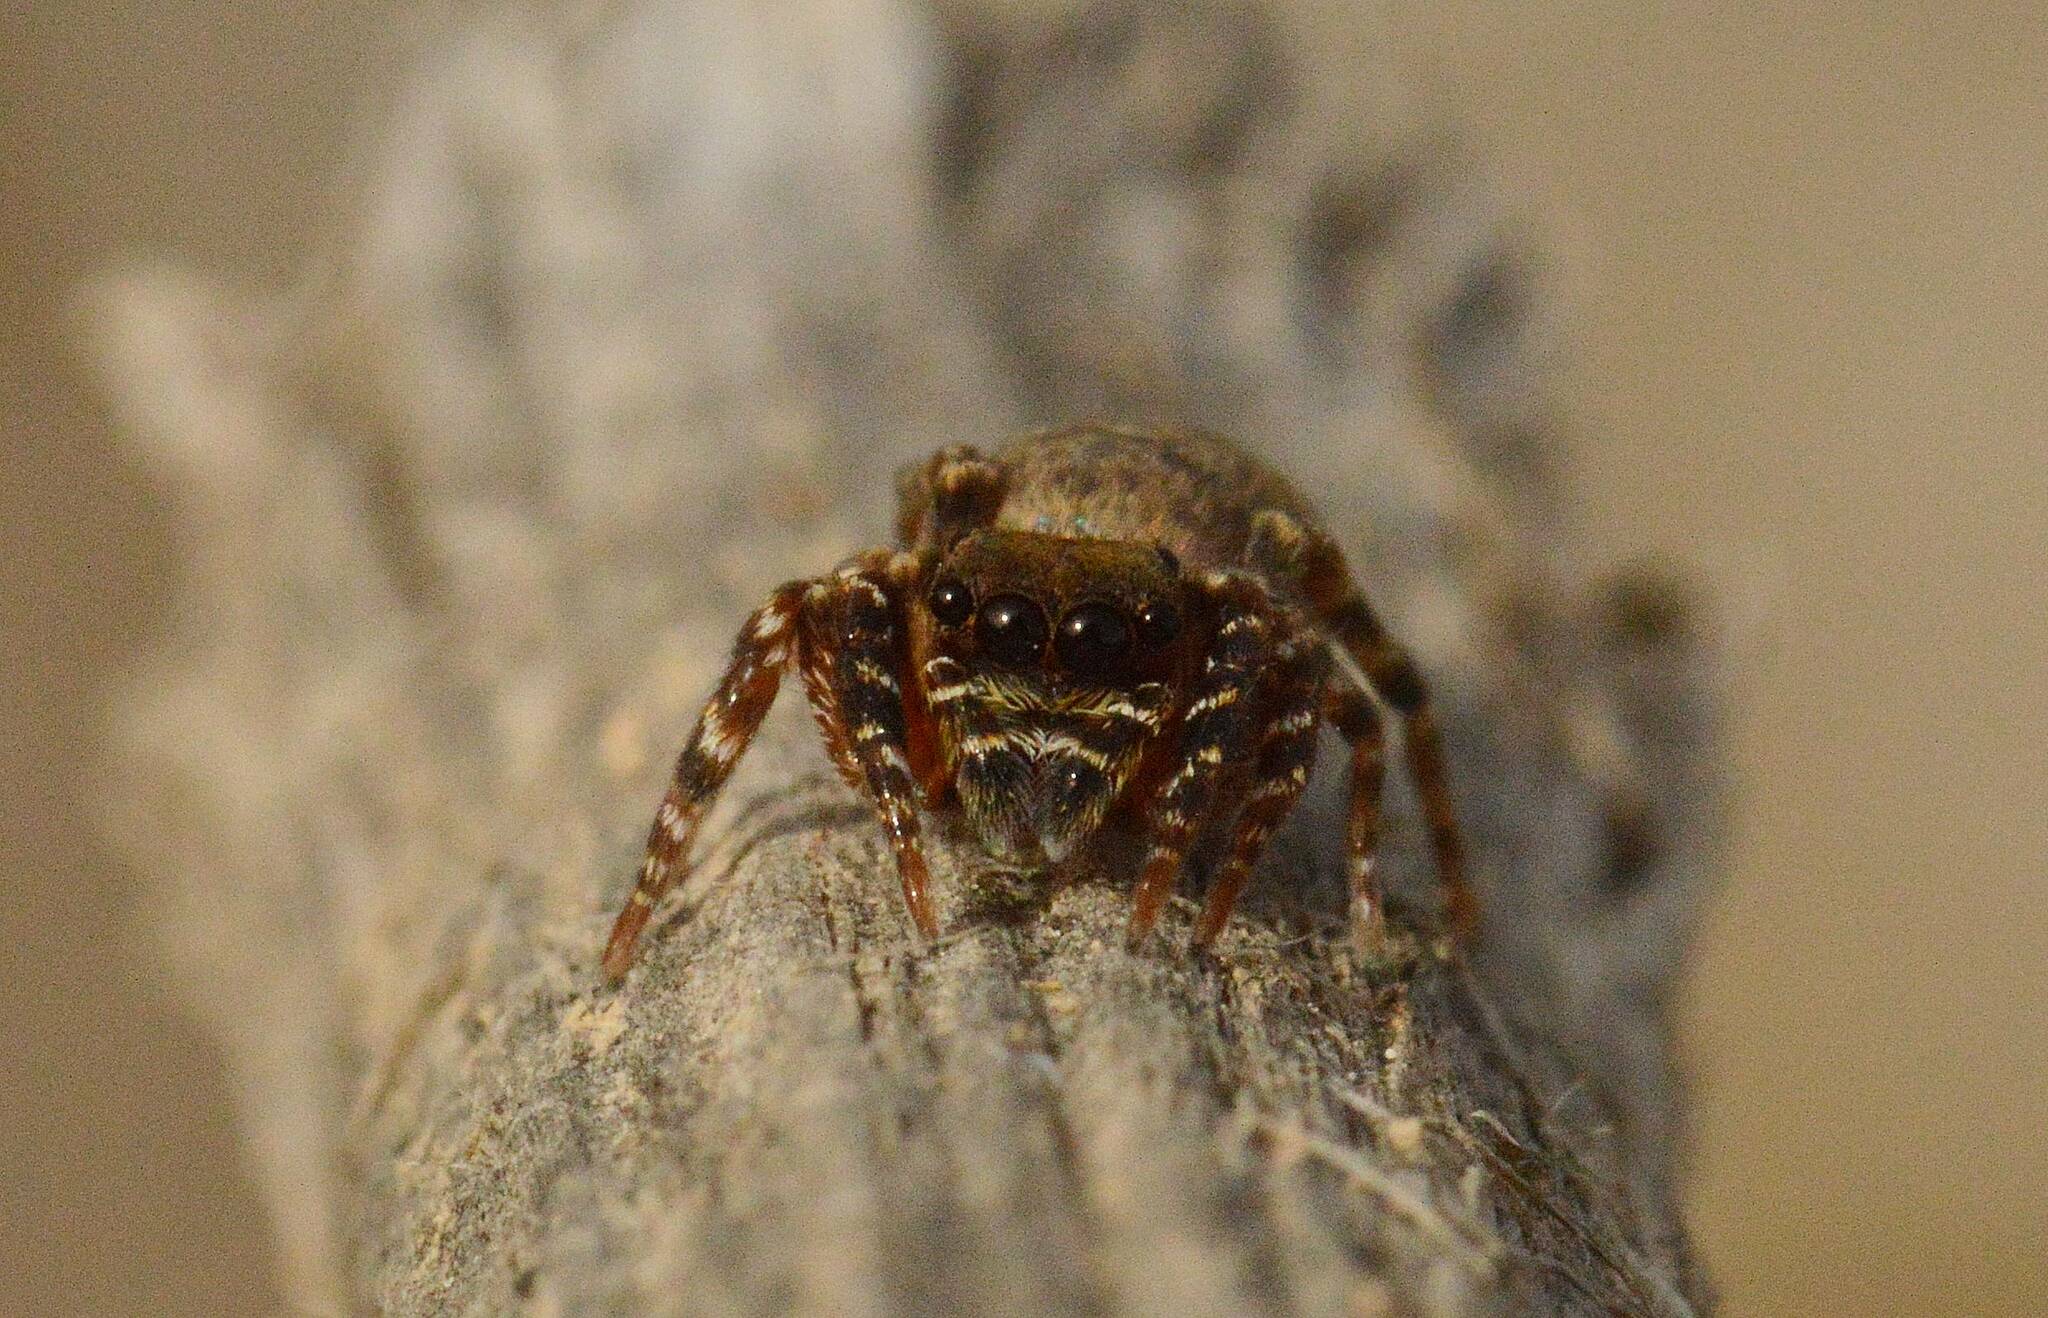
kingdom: Animalia
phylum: Arthropoda
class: Arachnida
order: Araneae
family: Salticidae
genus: Cyrba
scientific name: Cyrba algerina
